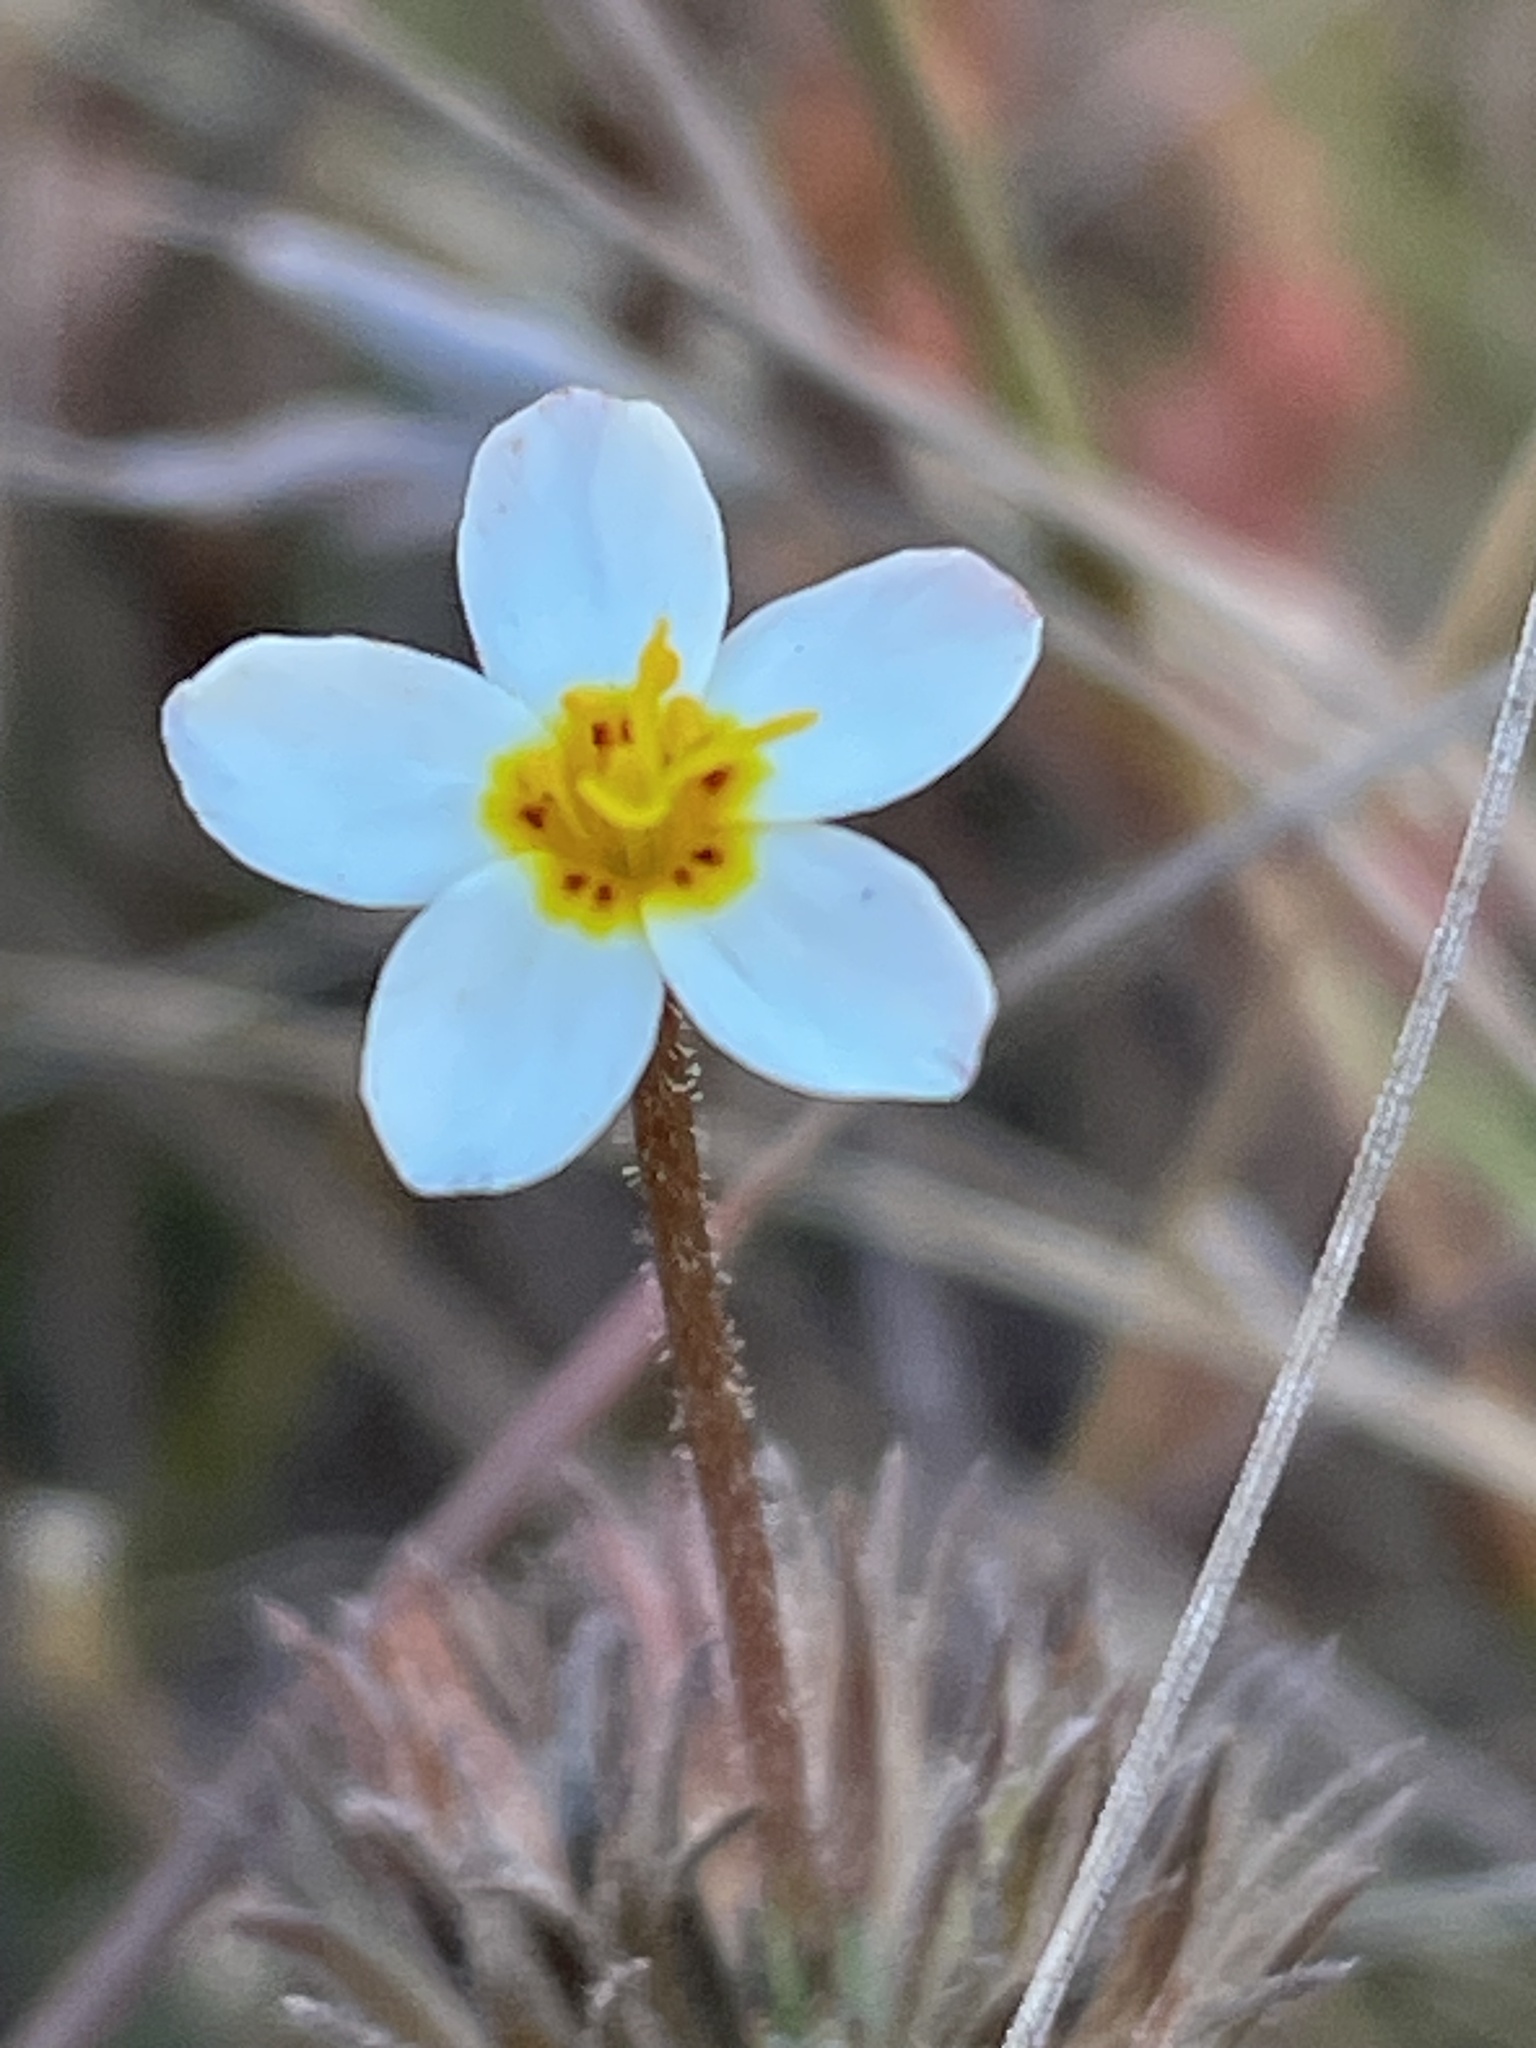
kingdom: Plantae
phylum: Tracheophyta
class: Magnoliopsida
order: Ericales
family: Polemoniaceae
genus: Leptosiphon
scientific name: Leptosiphon parviflorus
